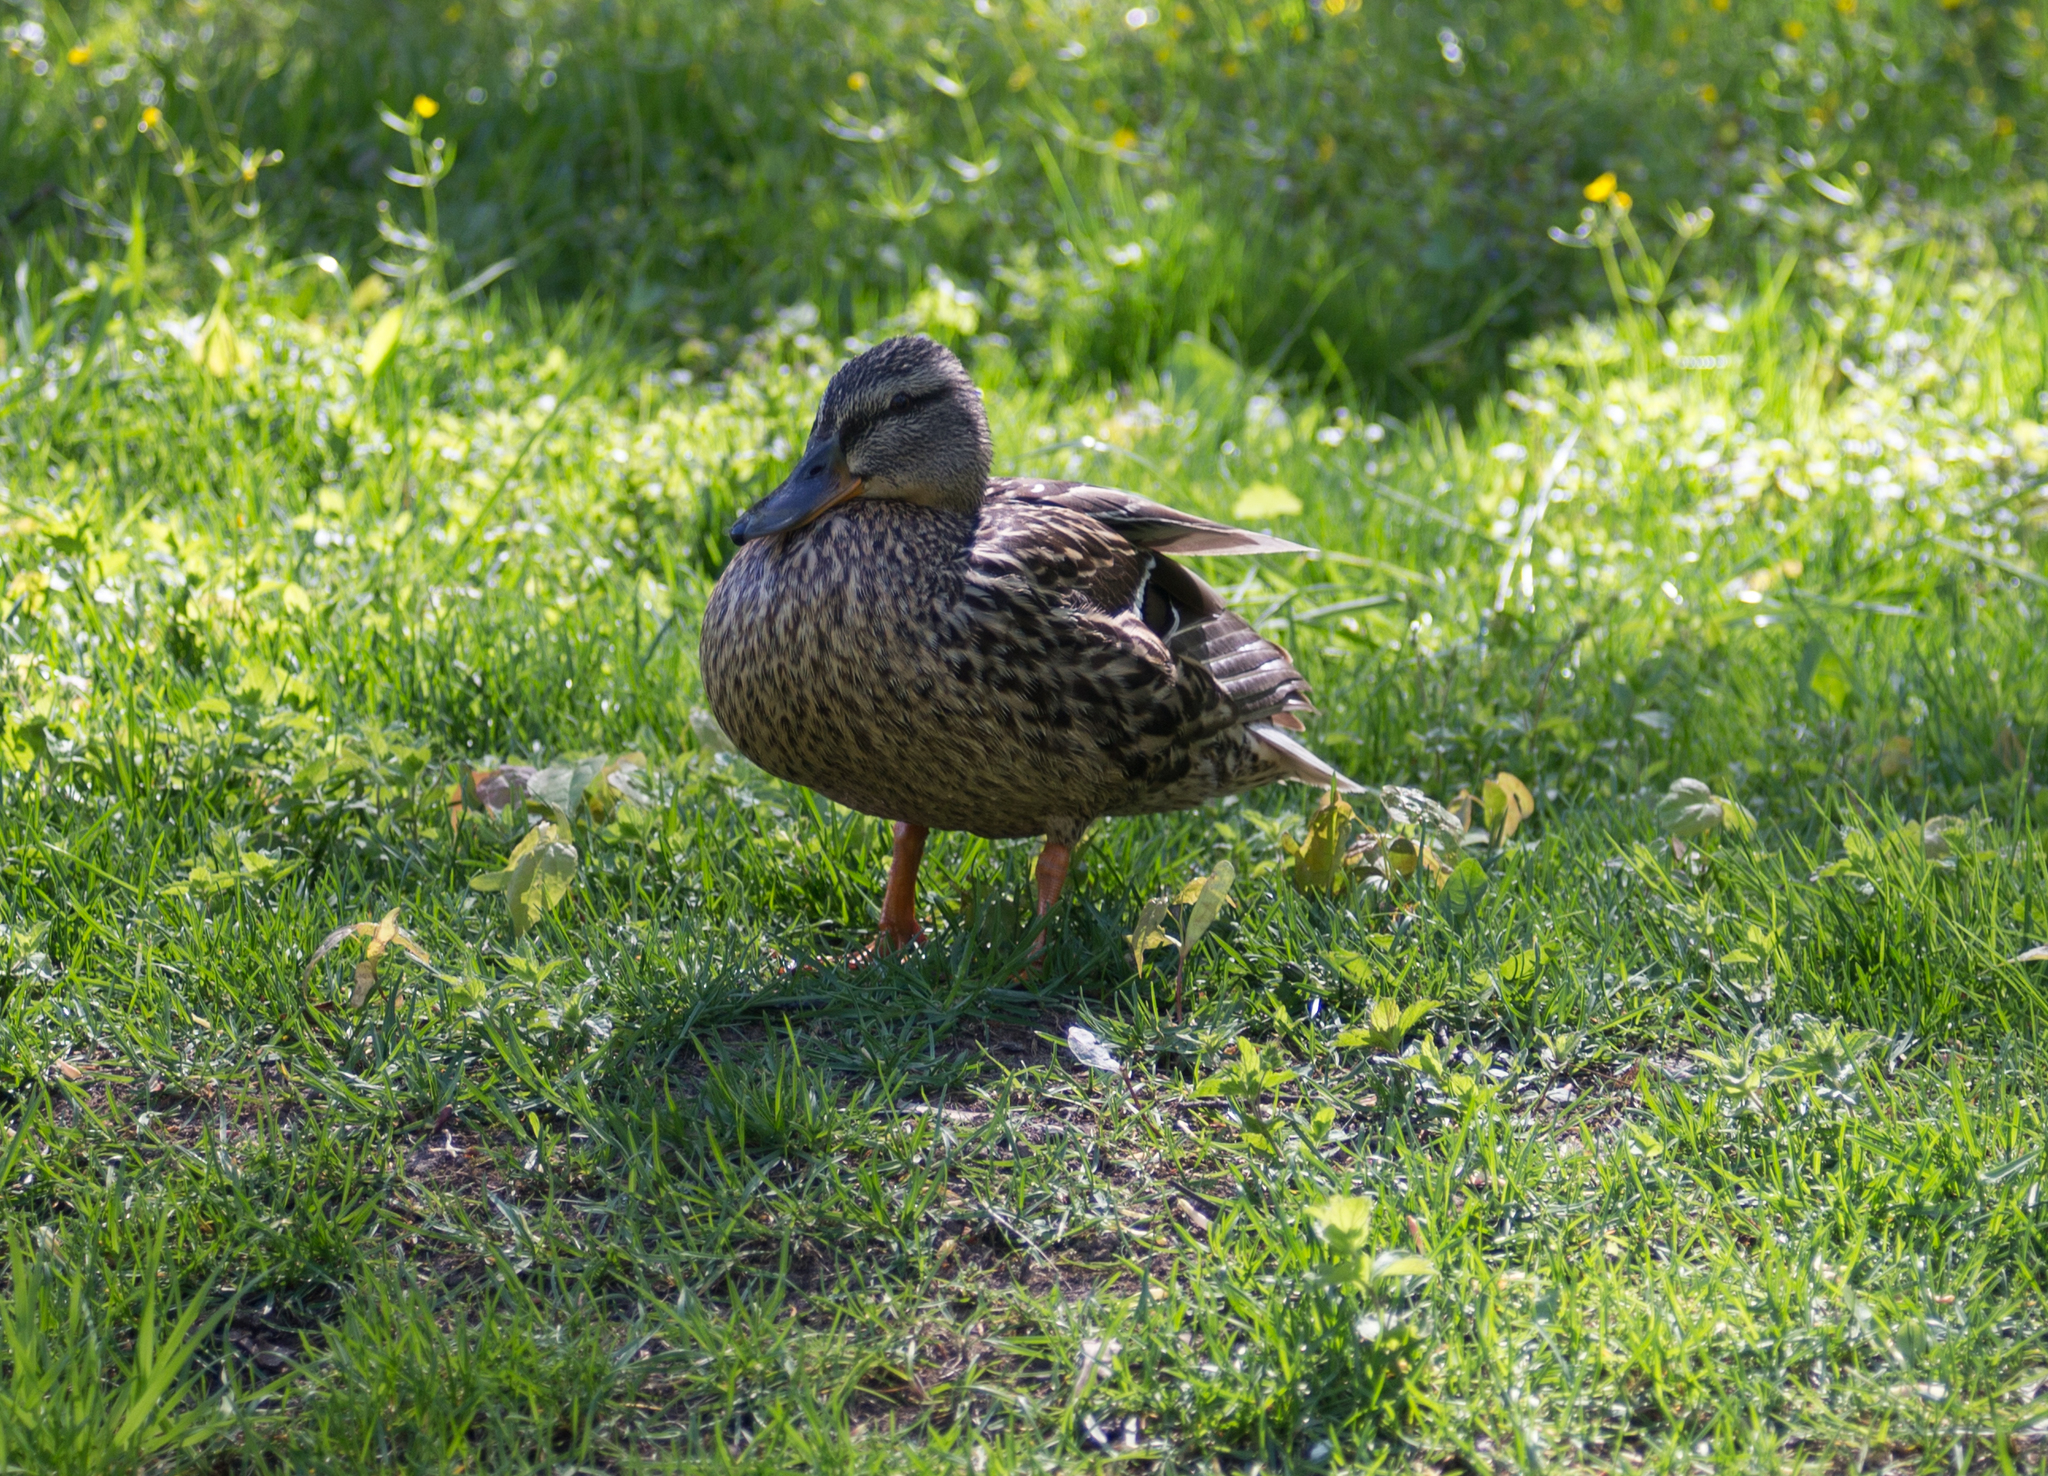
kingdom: Animalia
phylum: Chordata
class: Aves
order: Anseriformes
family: Anatidae
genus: Anas
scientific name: Anas platyrhynchos
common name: Mallard
